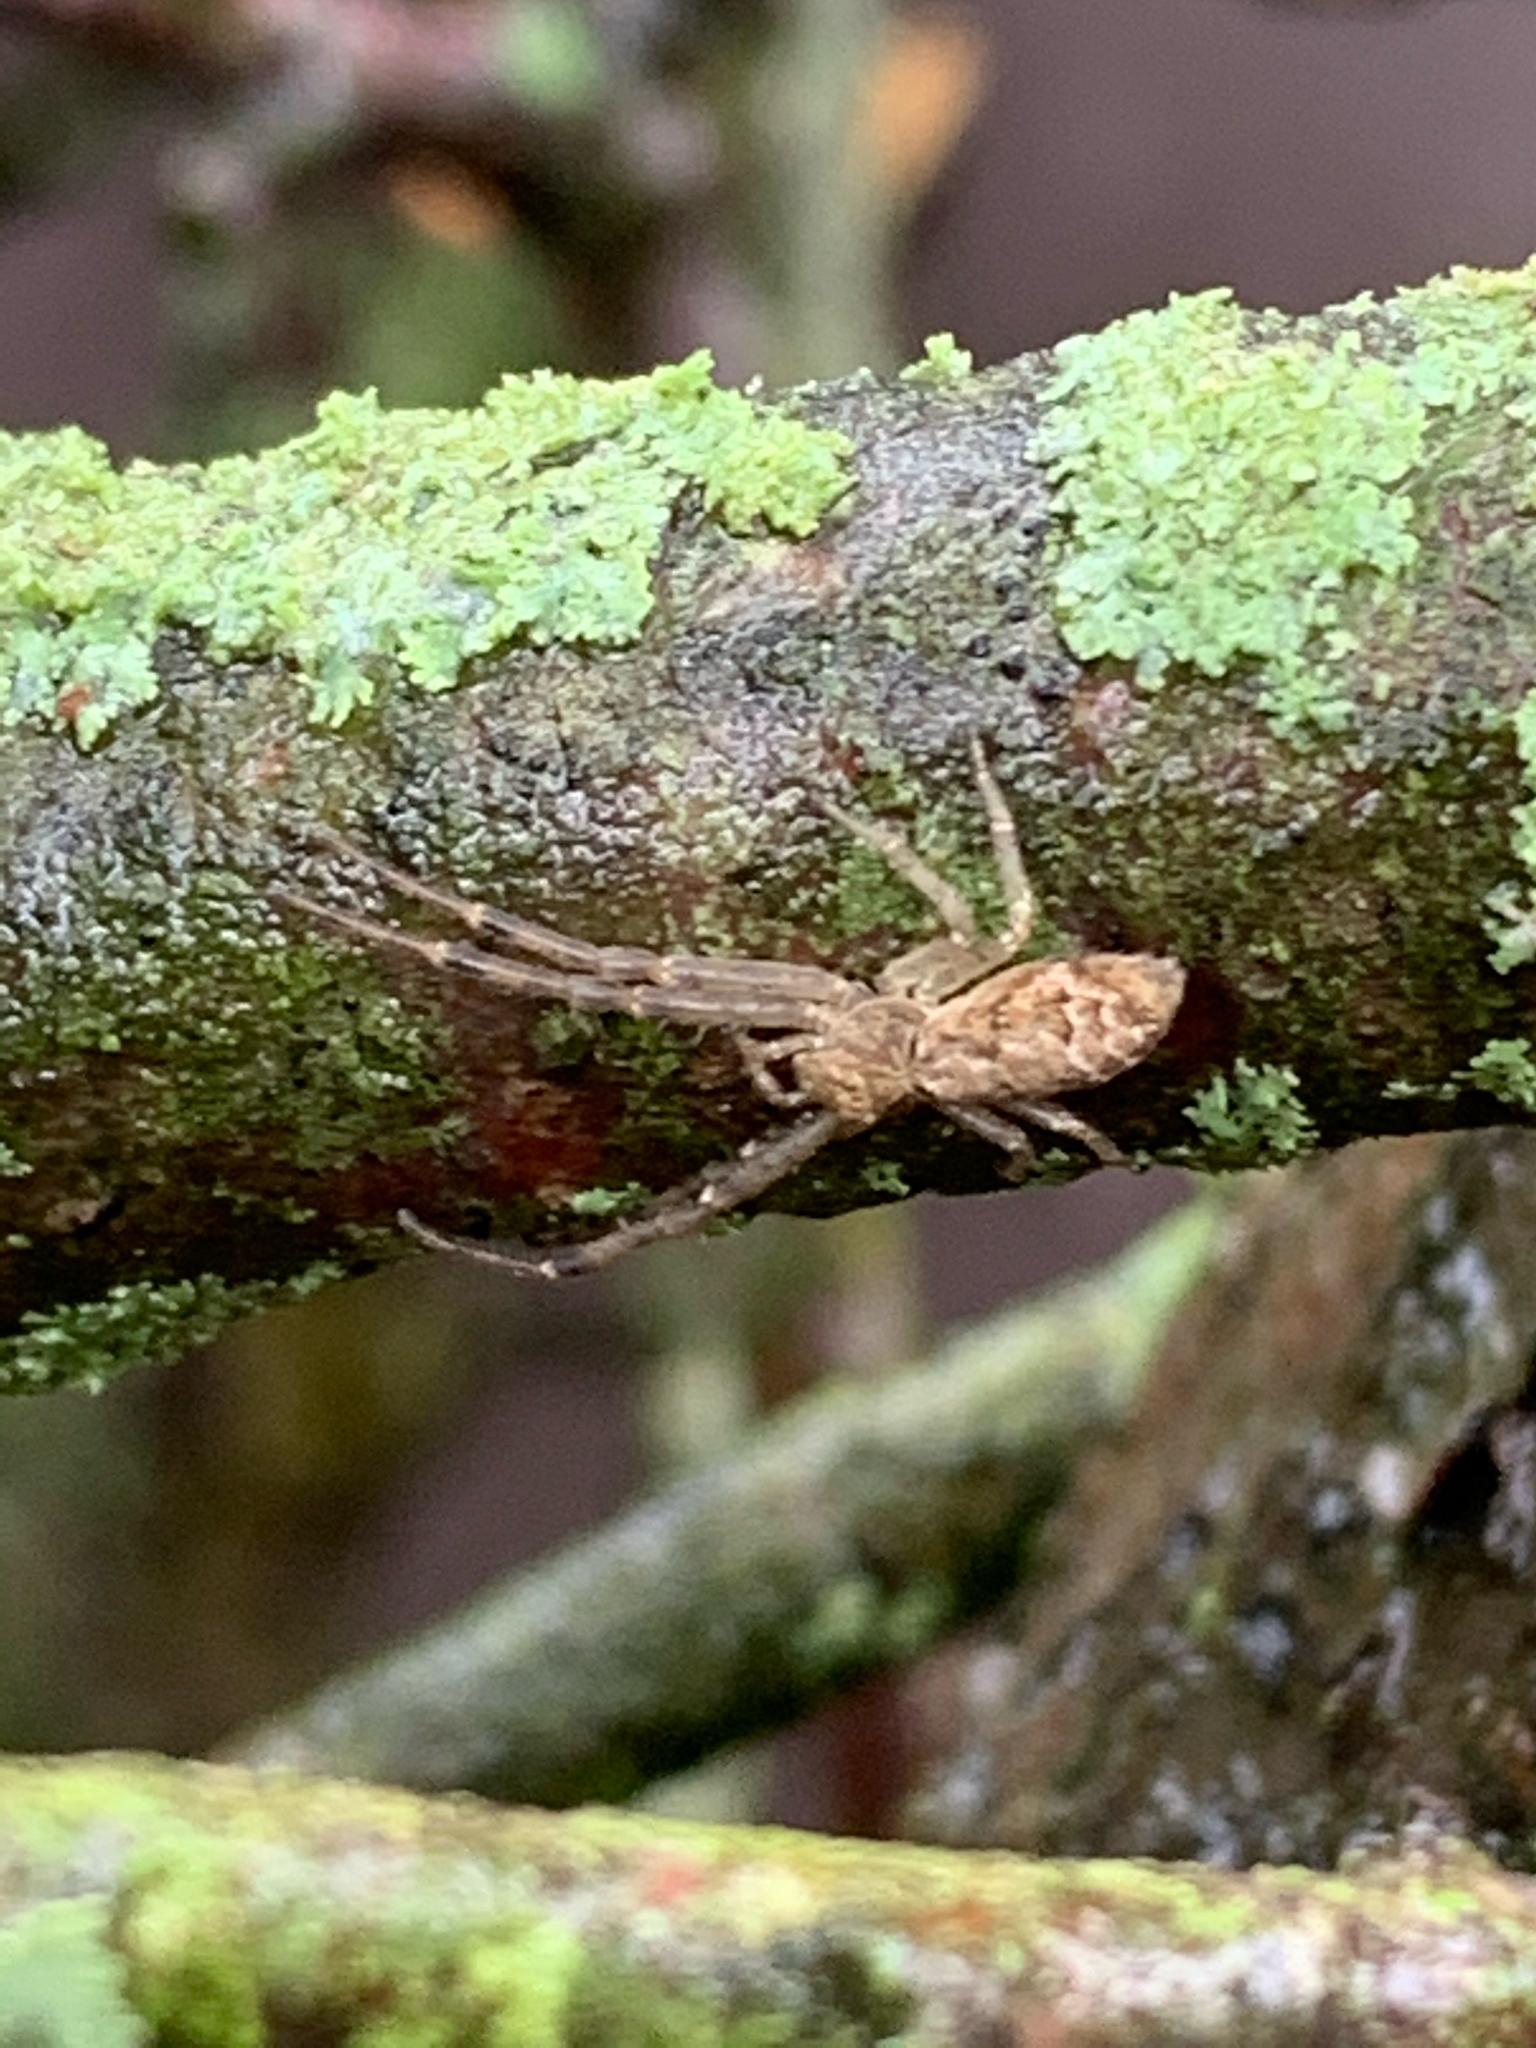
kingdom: Animalia
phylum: Arthropoda
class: Arachnida
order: Araneae
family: Thomisidae
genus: Tmarus
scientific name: Tmarus
